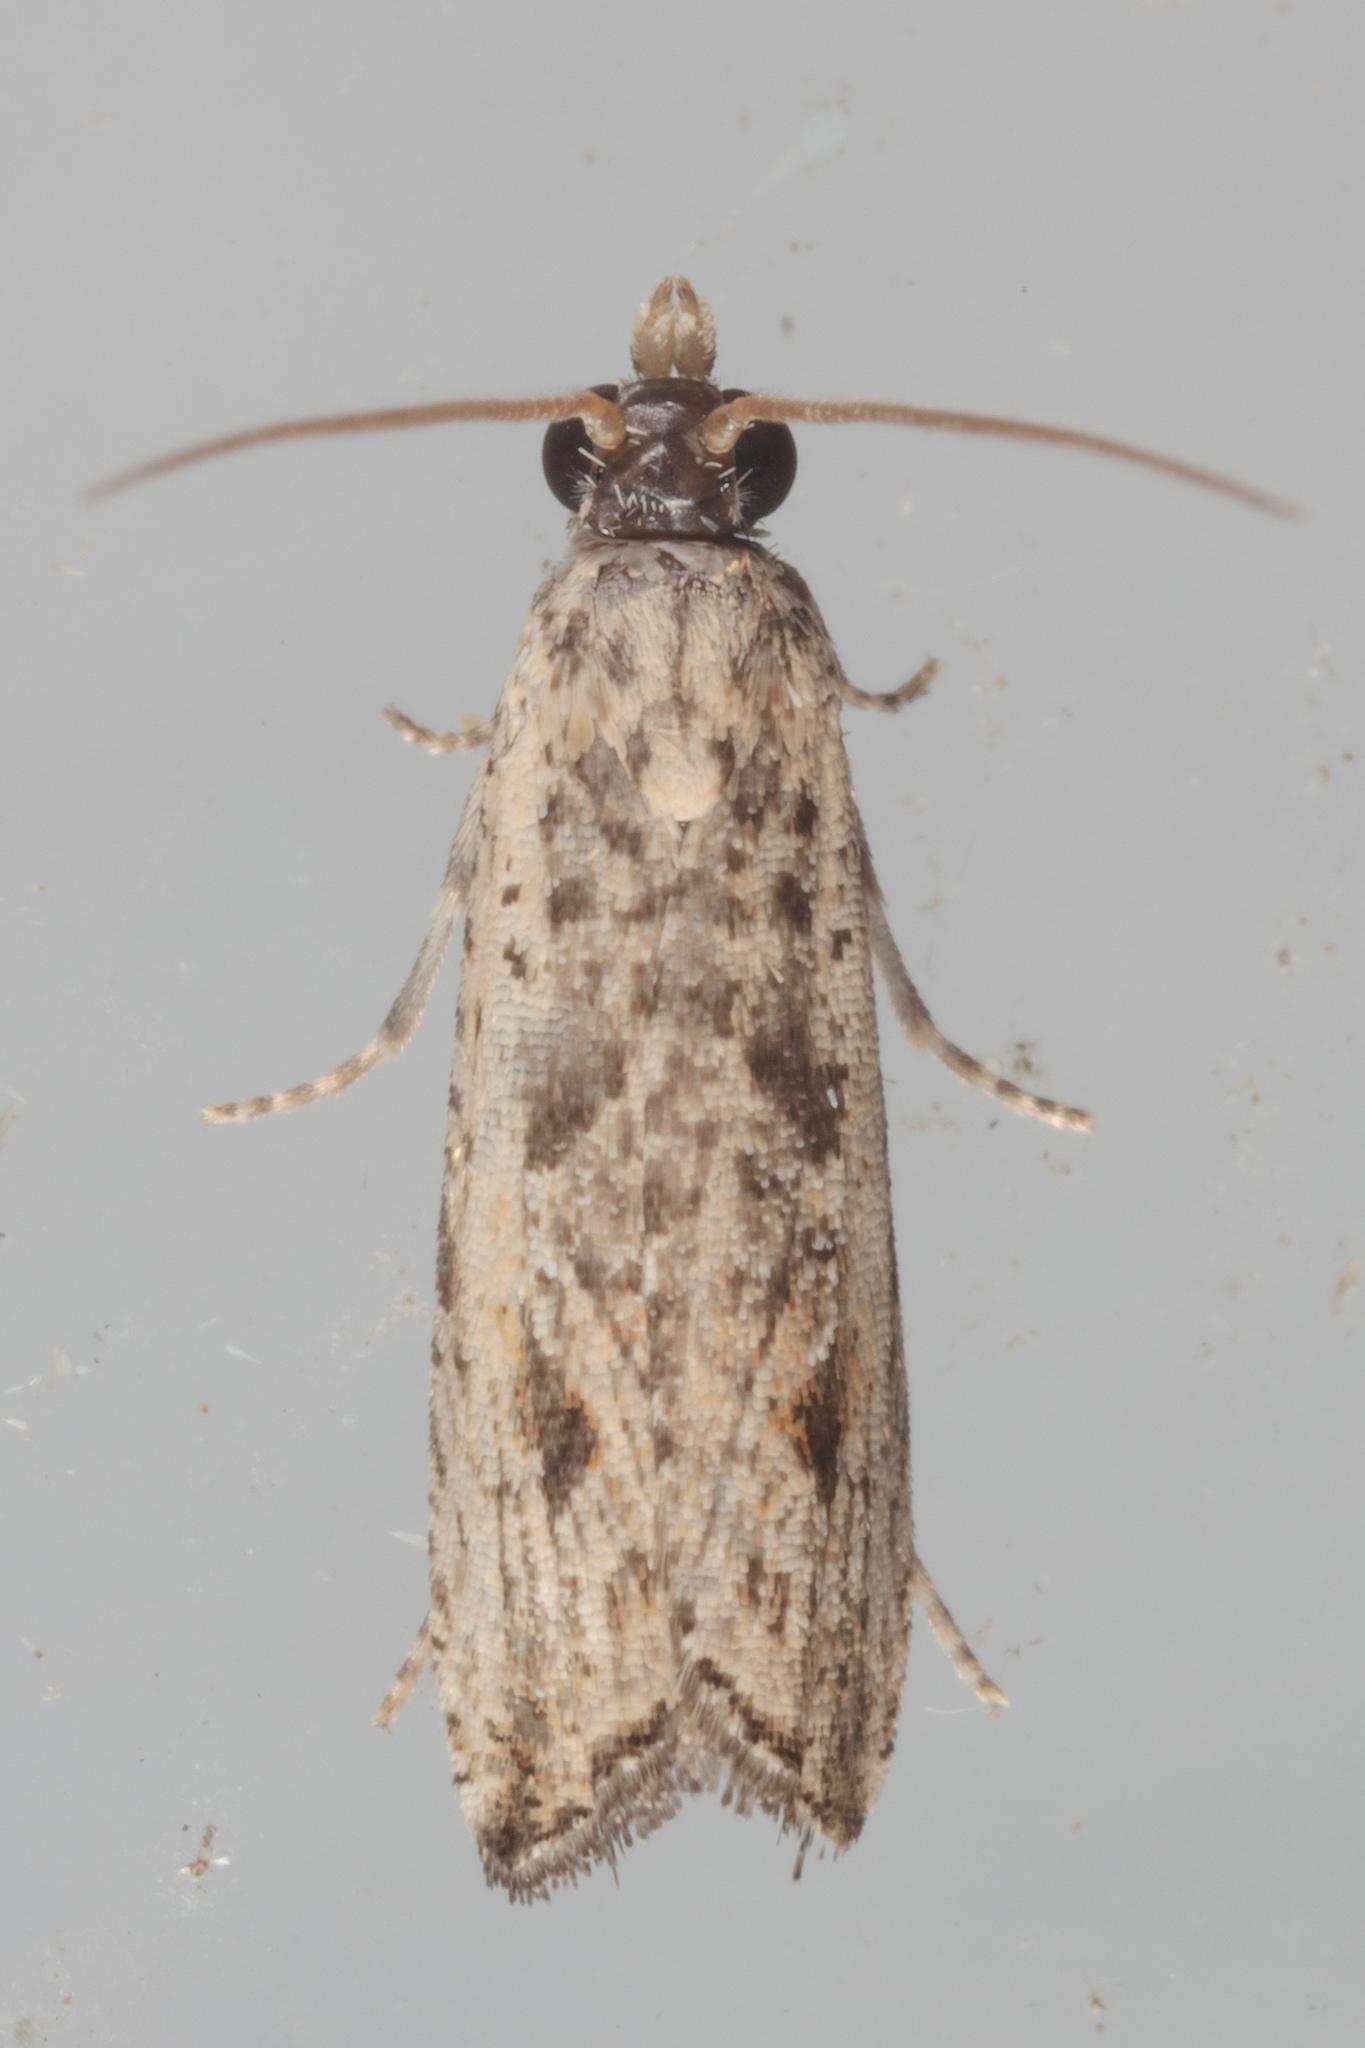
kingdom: Animalia
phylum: Arthropoda
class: Insecta
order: Lepidoptera
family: Tortricidae
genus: Bactra
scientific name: Bactra verutana
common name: Javelin moth
